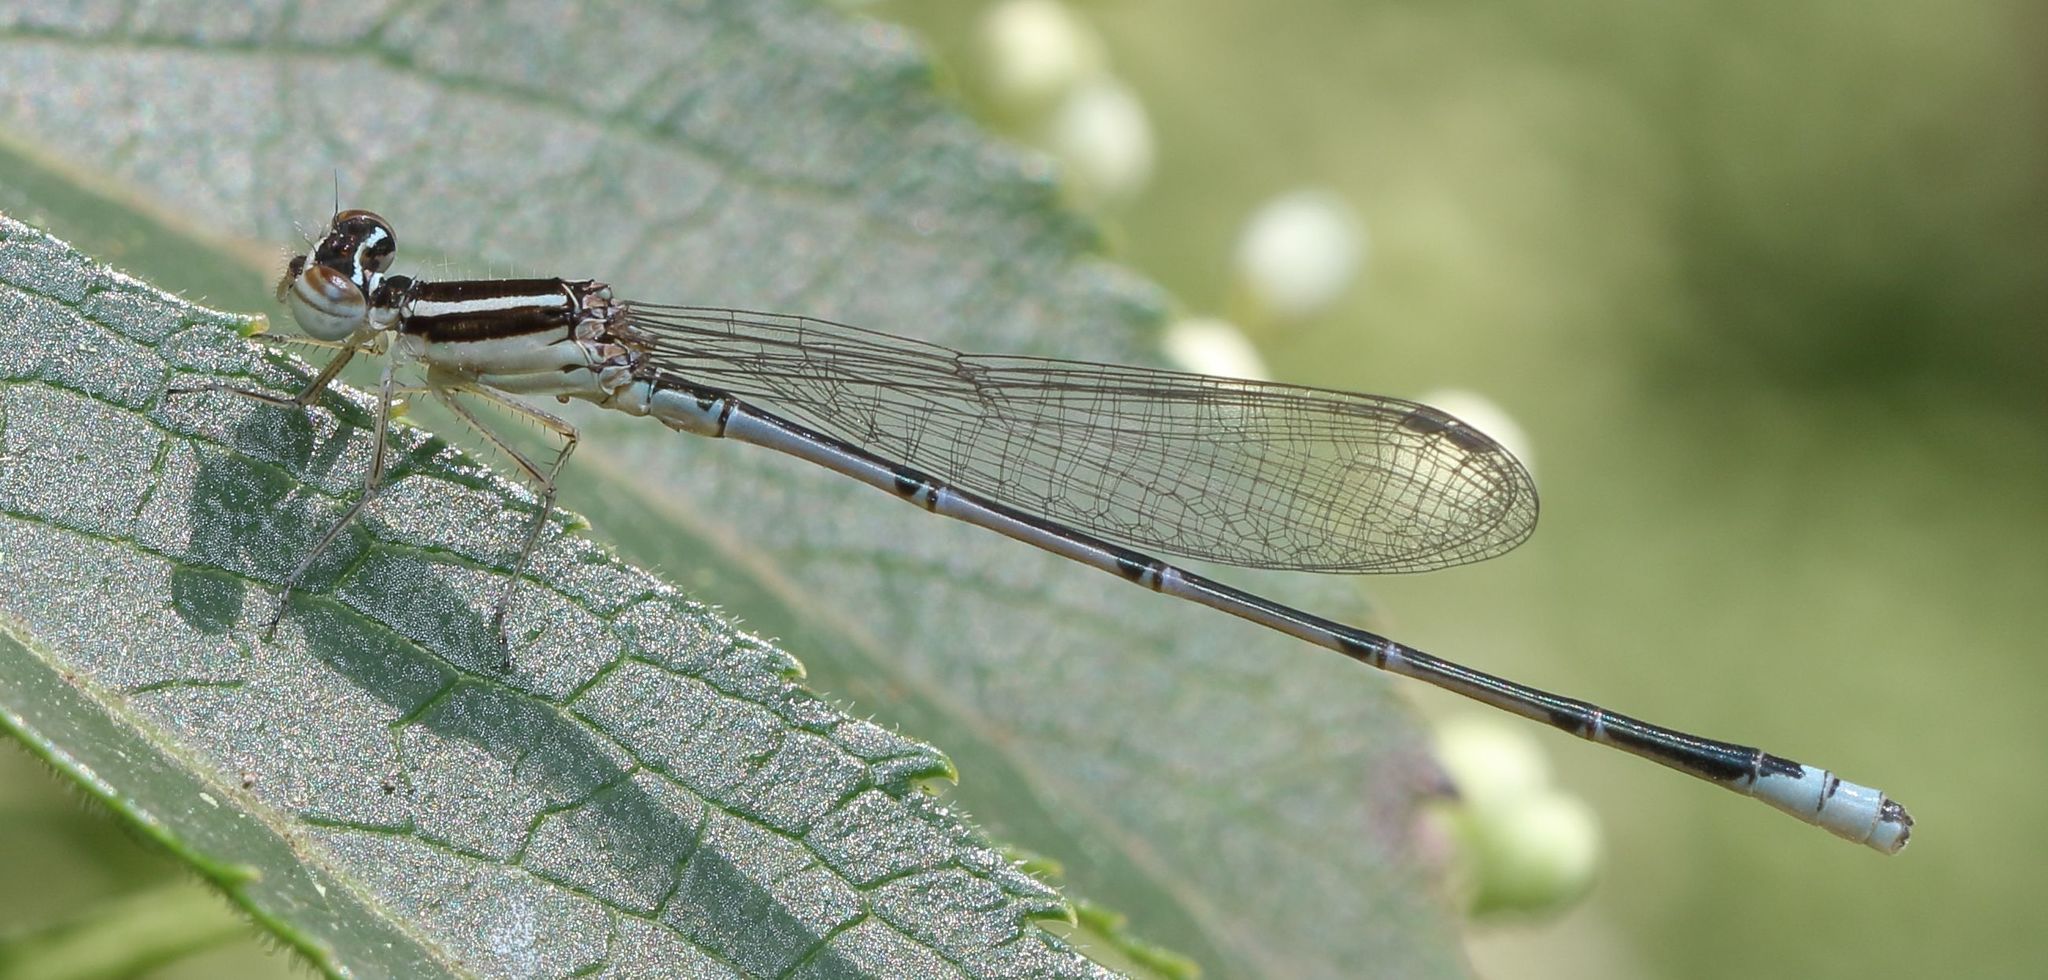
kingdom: Animalia
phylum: Arthropoda
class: Insecta
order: Odonata
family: Coenagrionidae
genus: Azuragrion
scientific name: Azuragrion nigridorsum
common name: Sailing azuret
